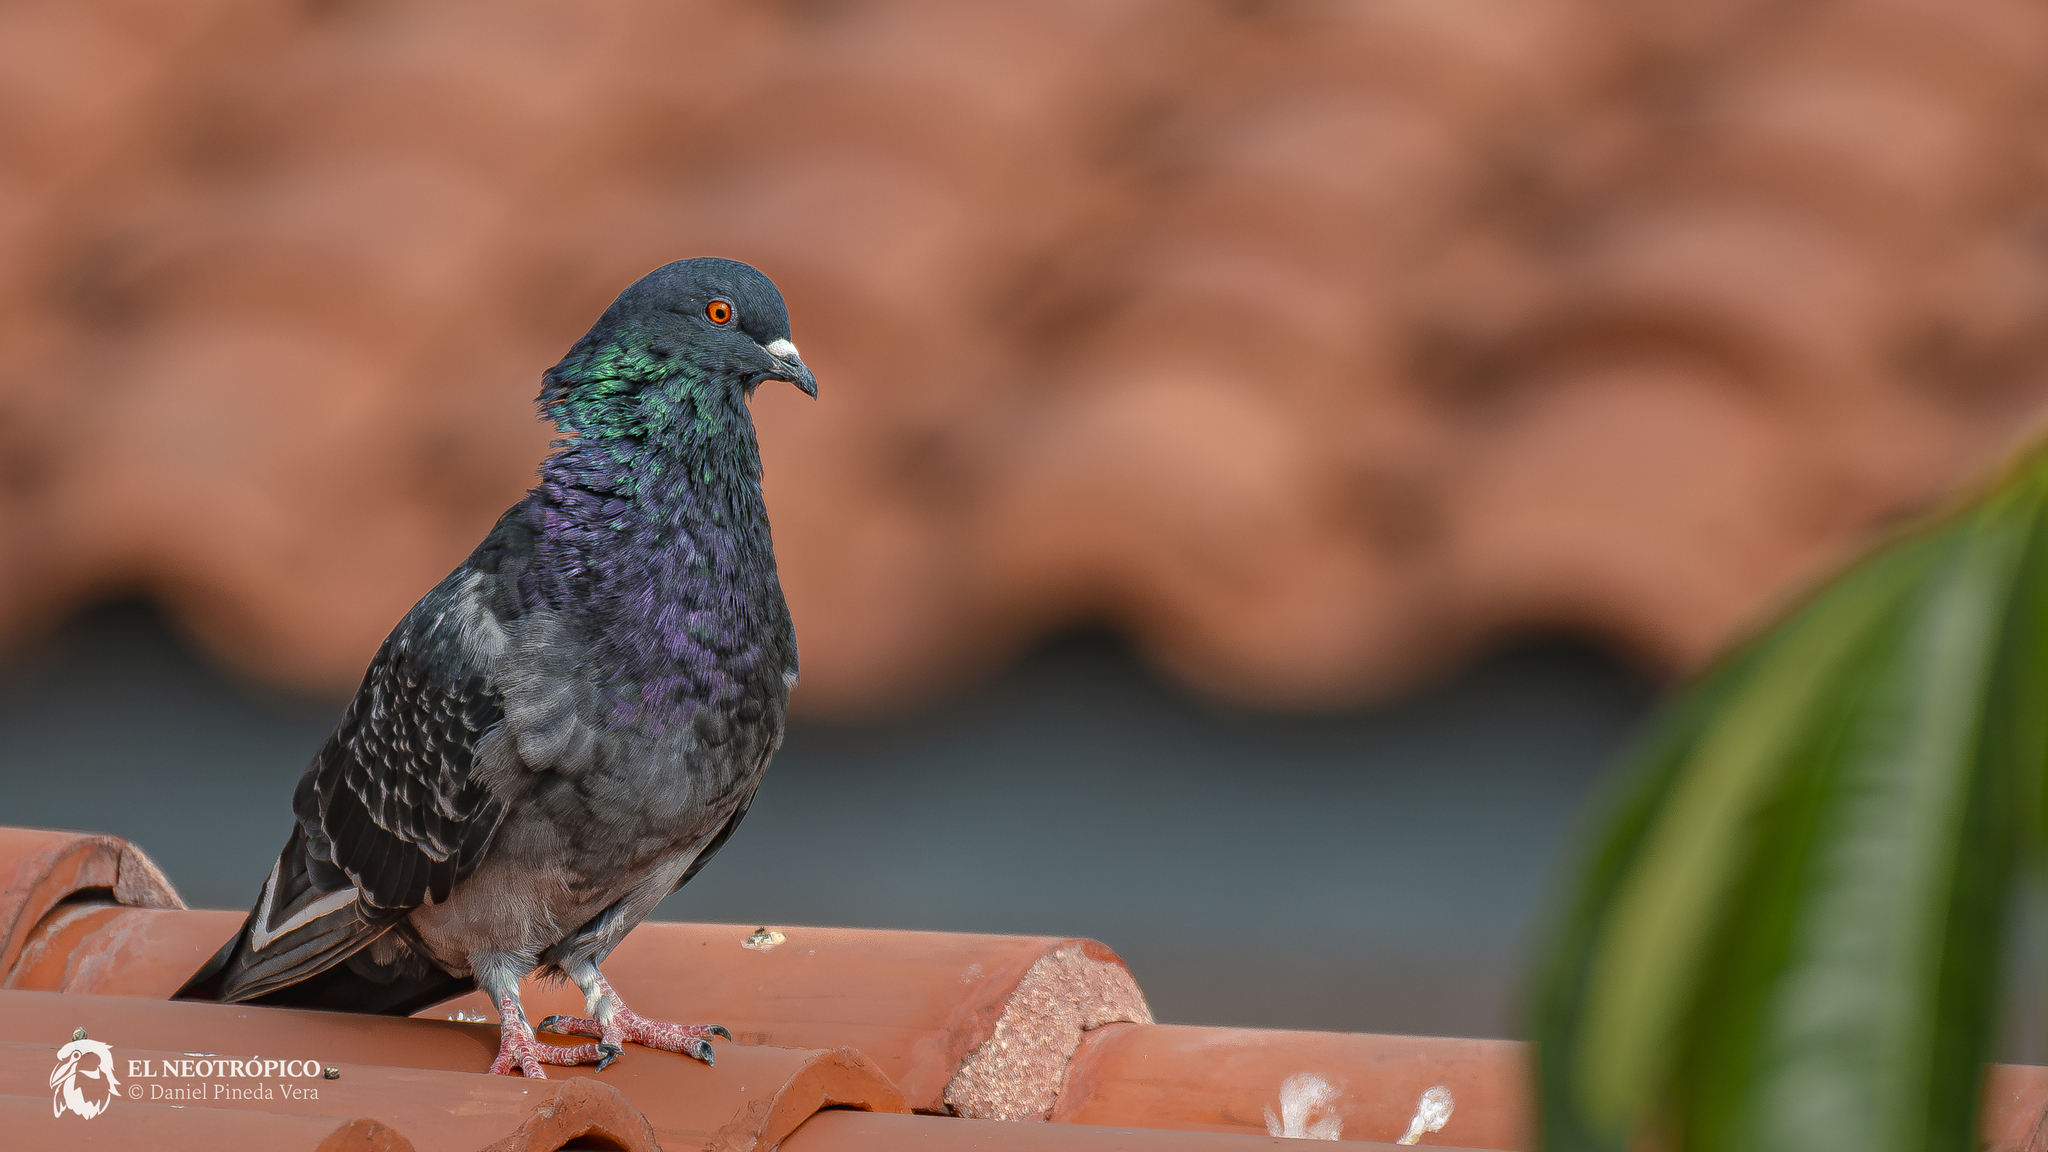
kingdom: Animalia
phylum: Chordata
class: Aves
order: Columbiformes
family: Columbidae
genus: Columba
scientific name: Columba livia
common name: Rock pigeon
